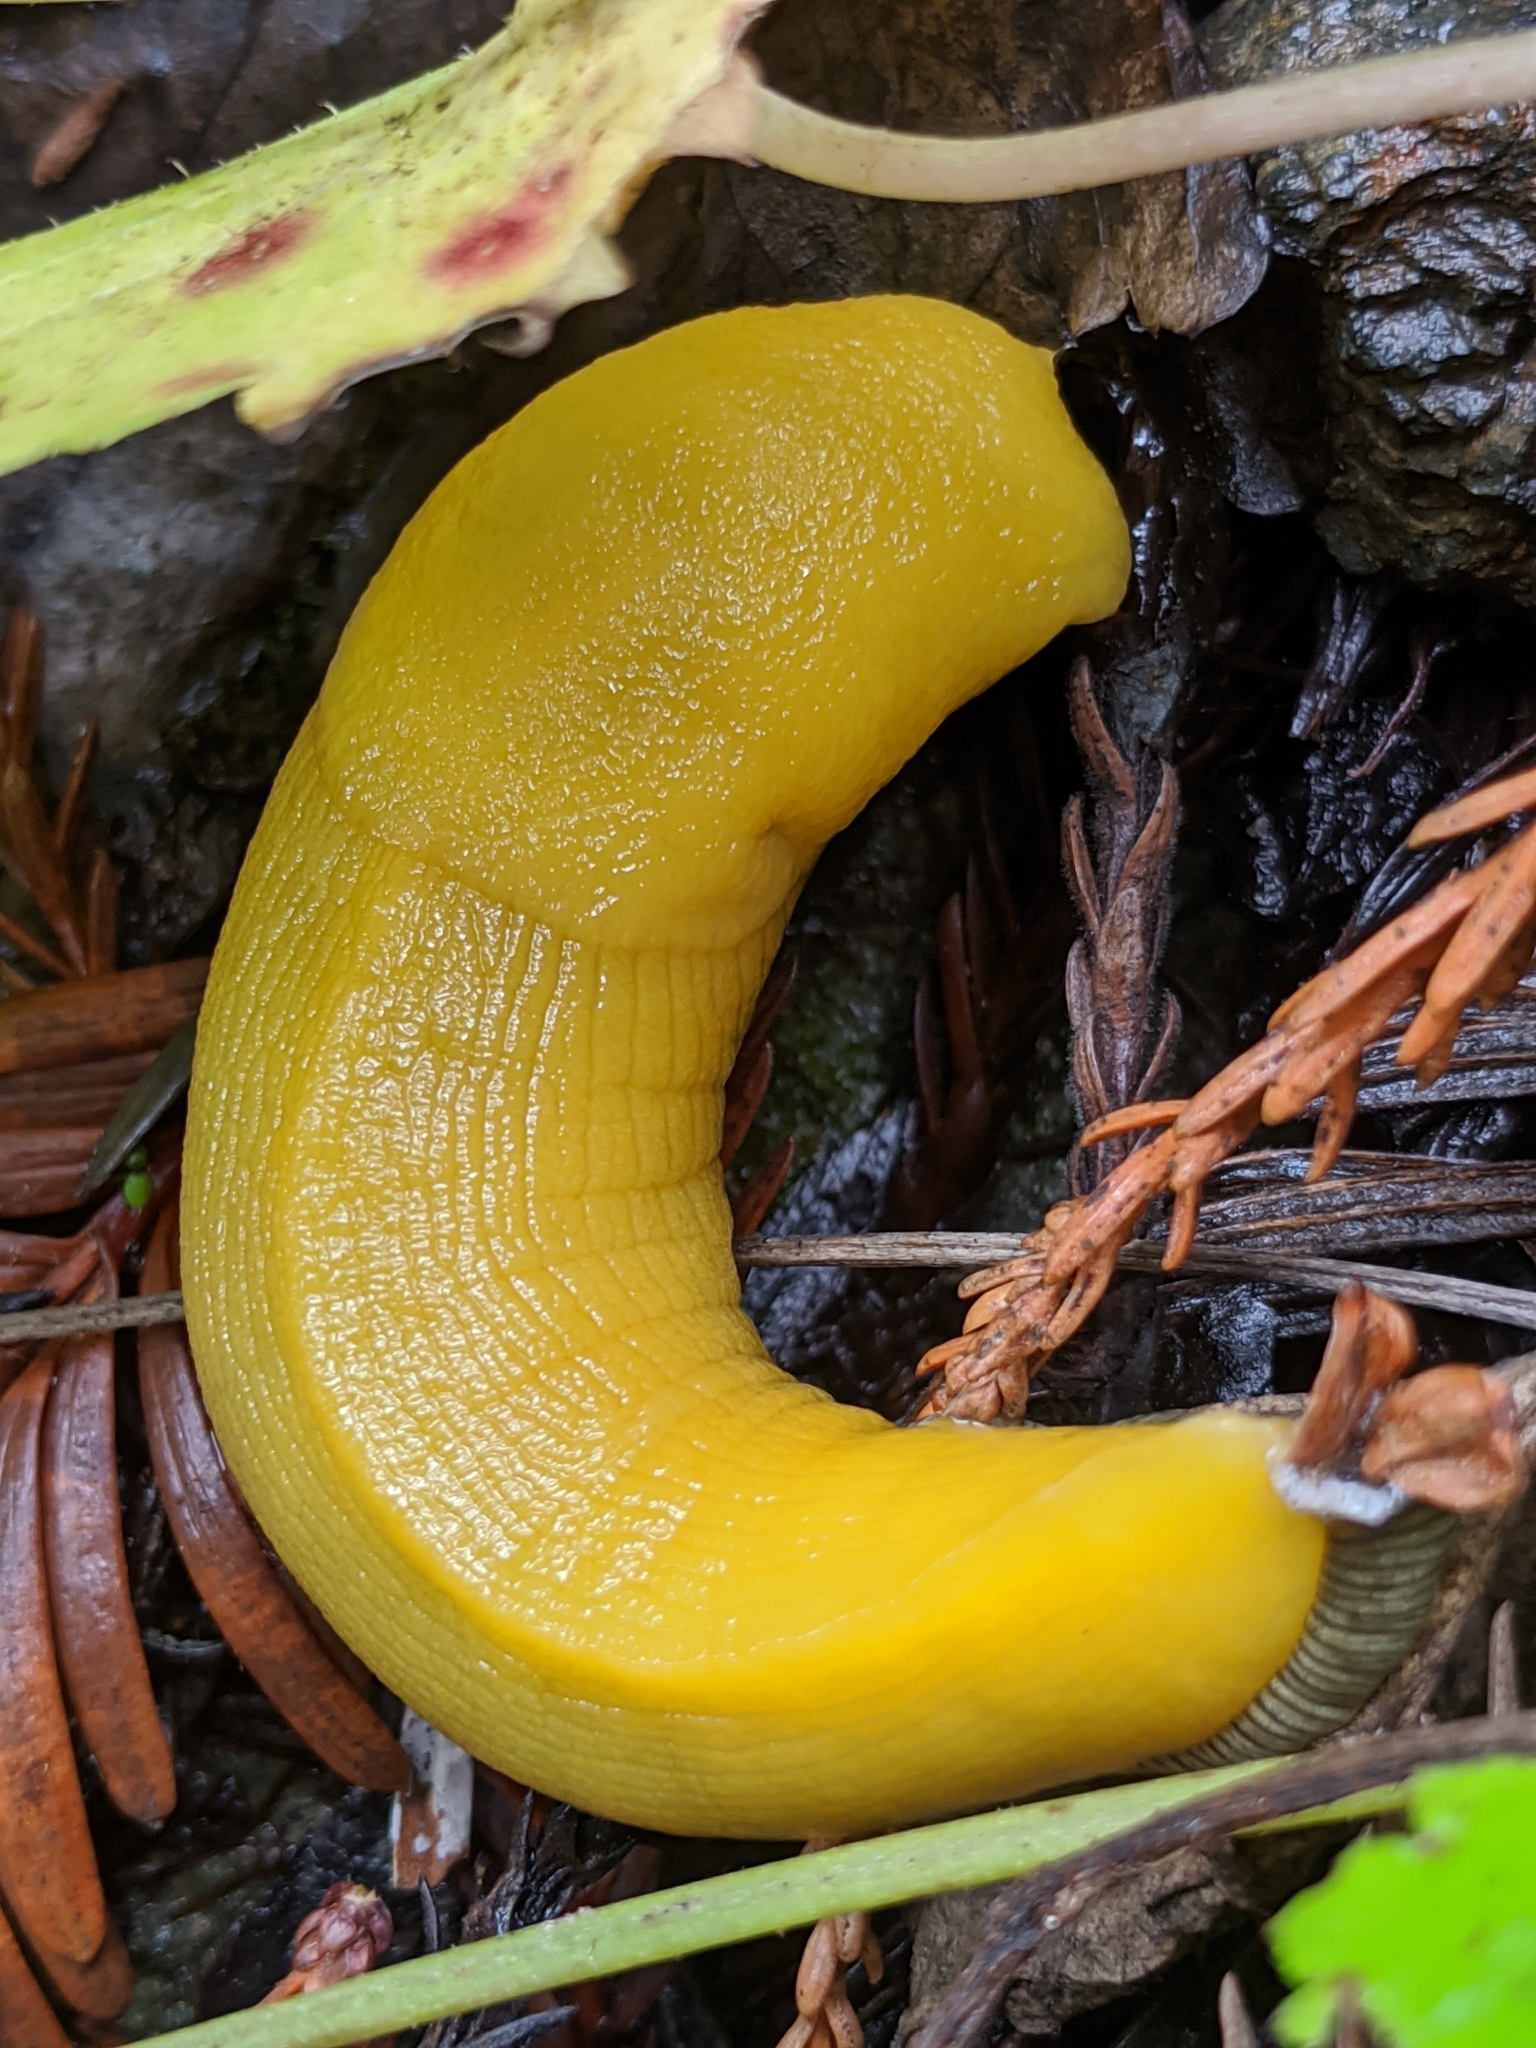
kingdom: Animalia
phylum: Mollusca
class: Gastropoda
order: Stylommatophora
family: Ariolimacidae
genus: Ariolimax
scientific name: Ariolimax stramineus
